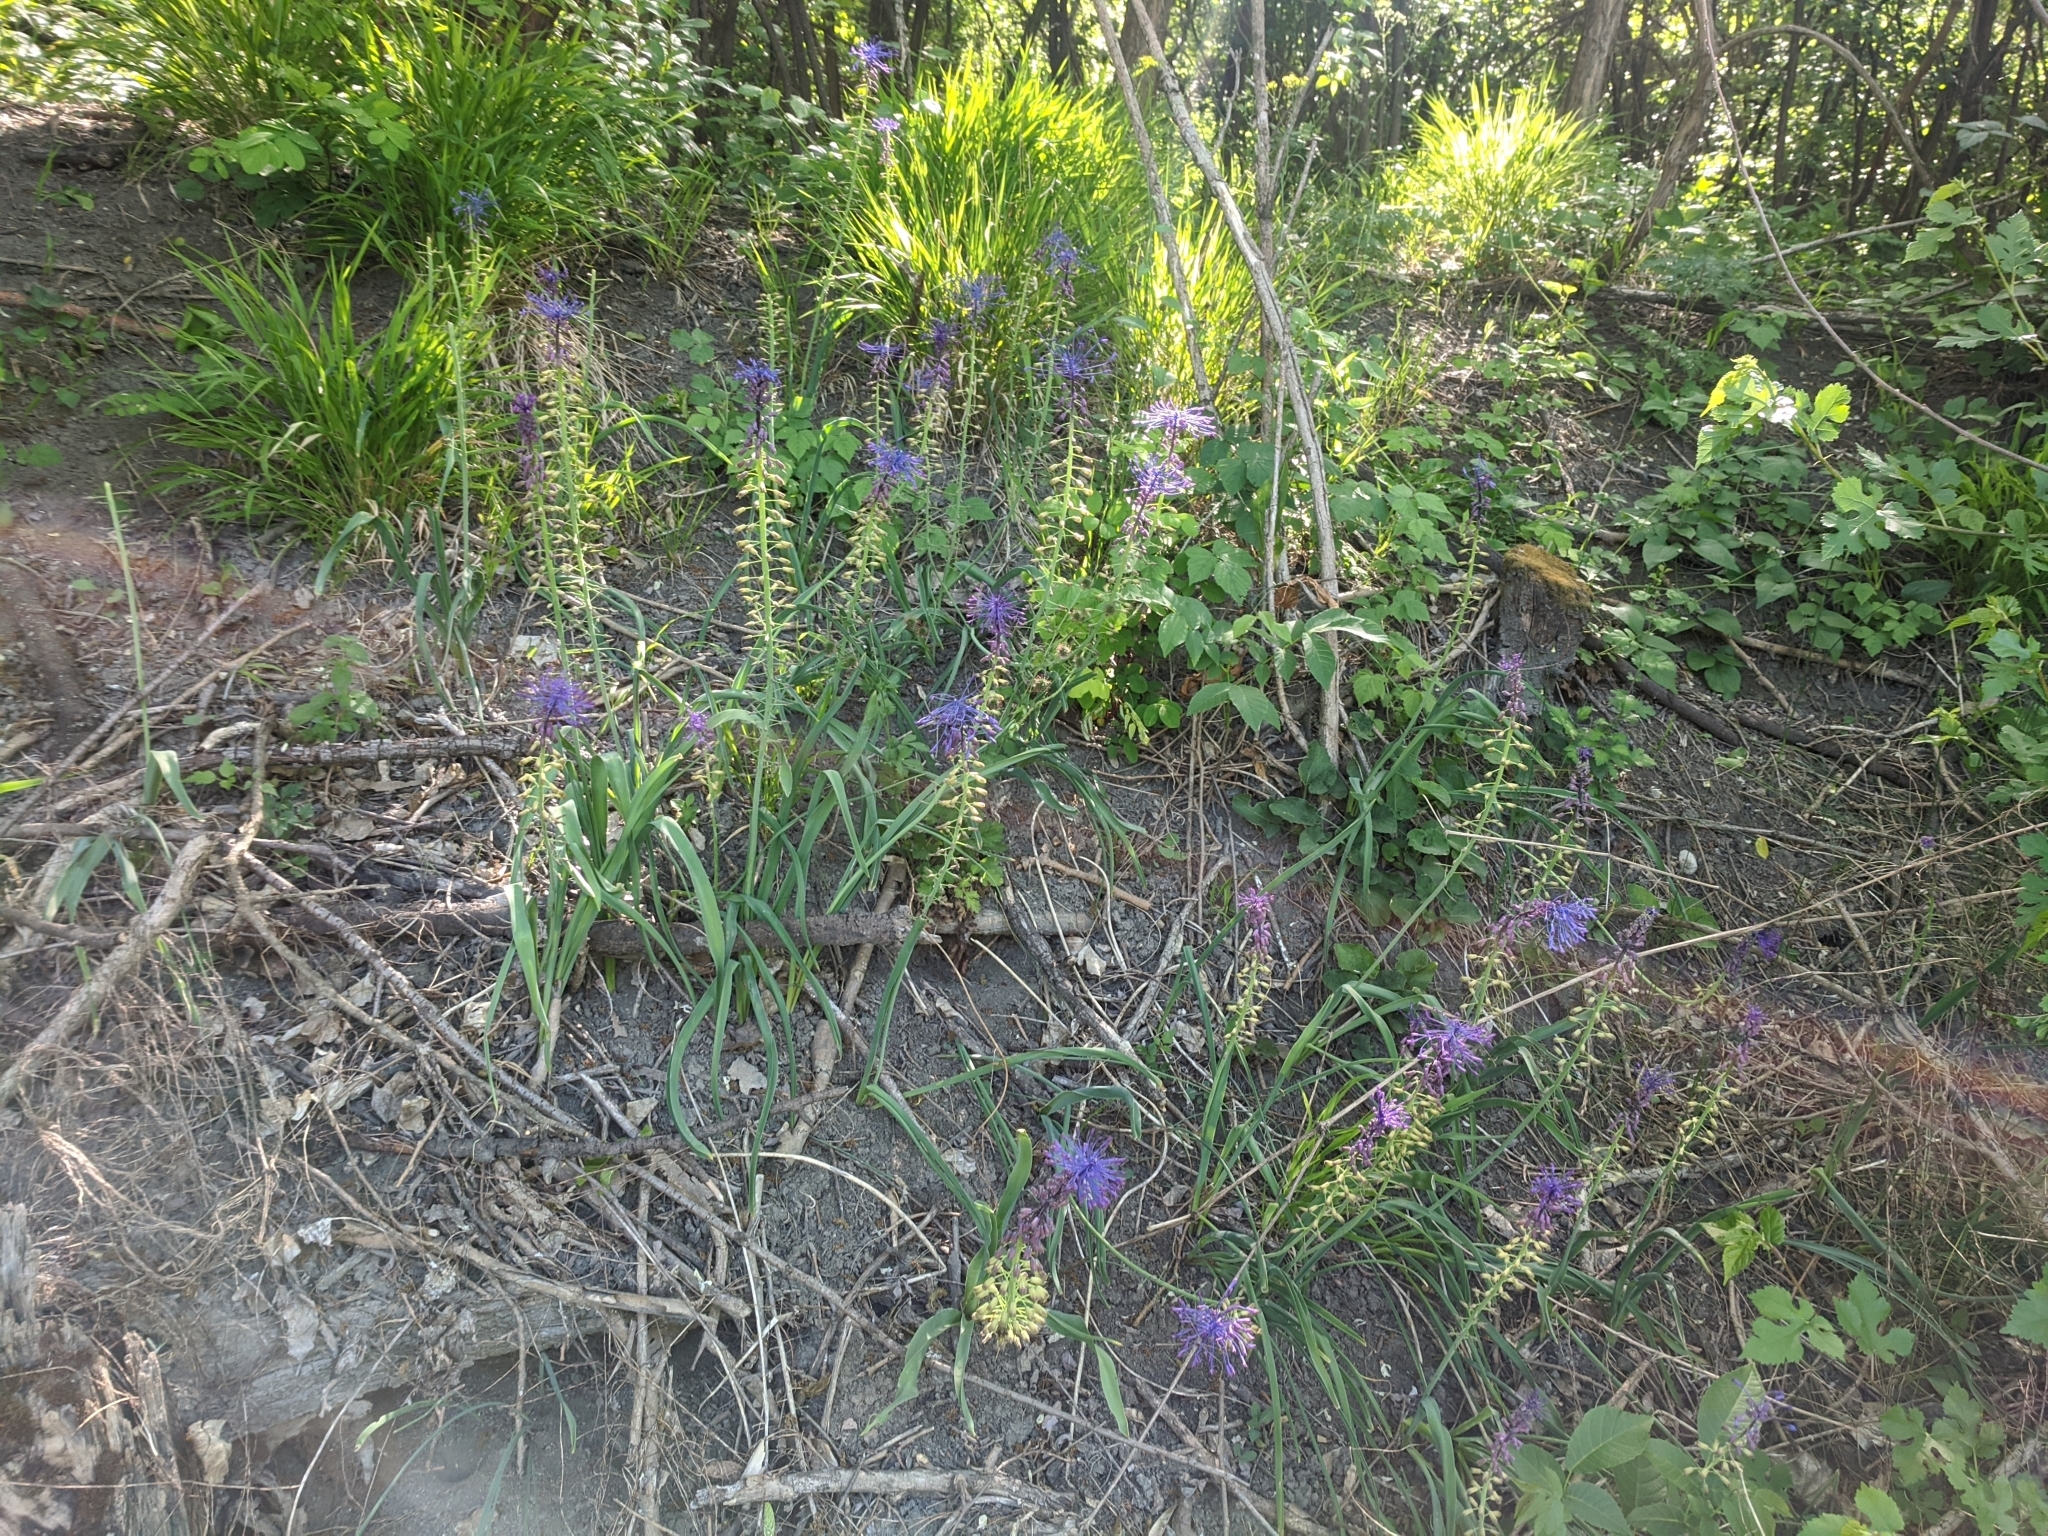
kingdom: Plantae
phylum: Tracheophyta
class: Liliopsida
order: Asparagales
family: Asparagaceae
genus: Muscari
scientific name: Muscari comosum
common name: Tassel hyacinth
